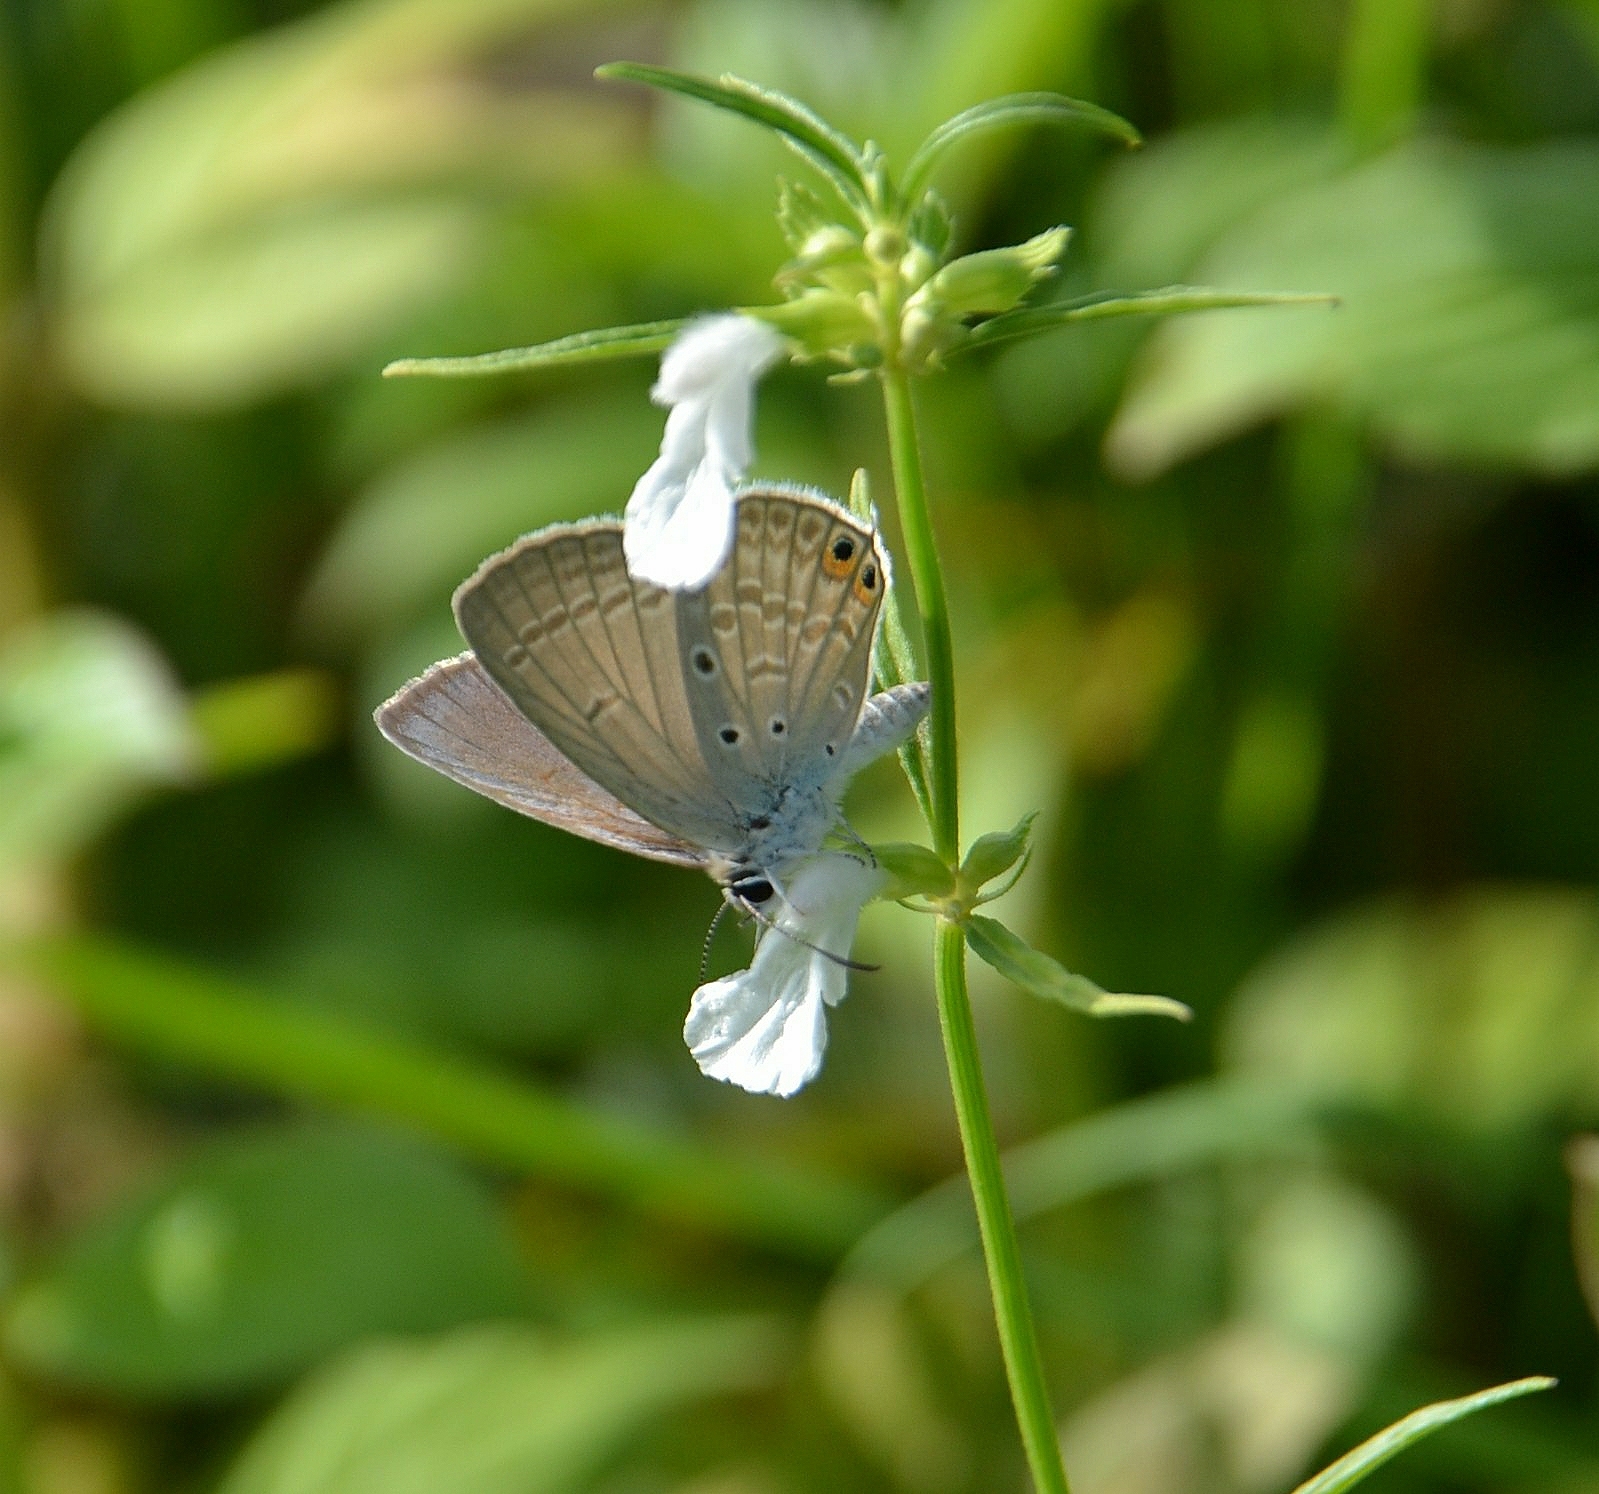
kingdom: Animalia
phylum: Arthropoda
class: Insecta
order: Lepidoptera
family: Lycaenidae
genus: Euchrysops
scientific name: Euchrysops cnejus
